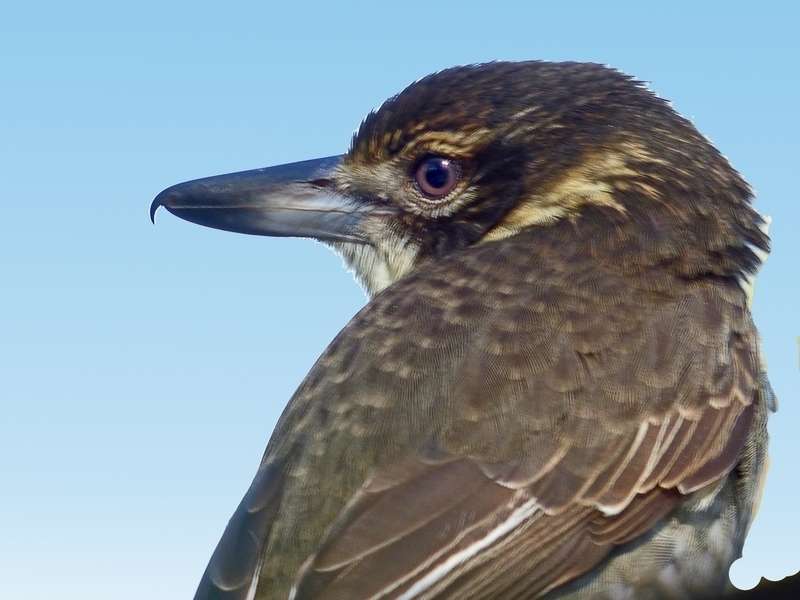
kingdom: Animalia
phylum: Chordata
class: Aves
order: Passeriformes
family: Cracticidae
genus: Cracticus
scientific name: Cracticus torquatus
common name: Grey butcherbird
